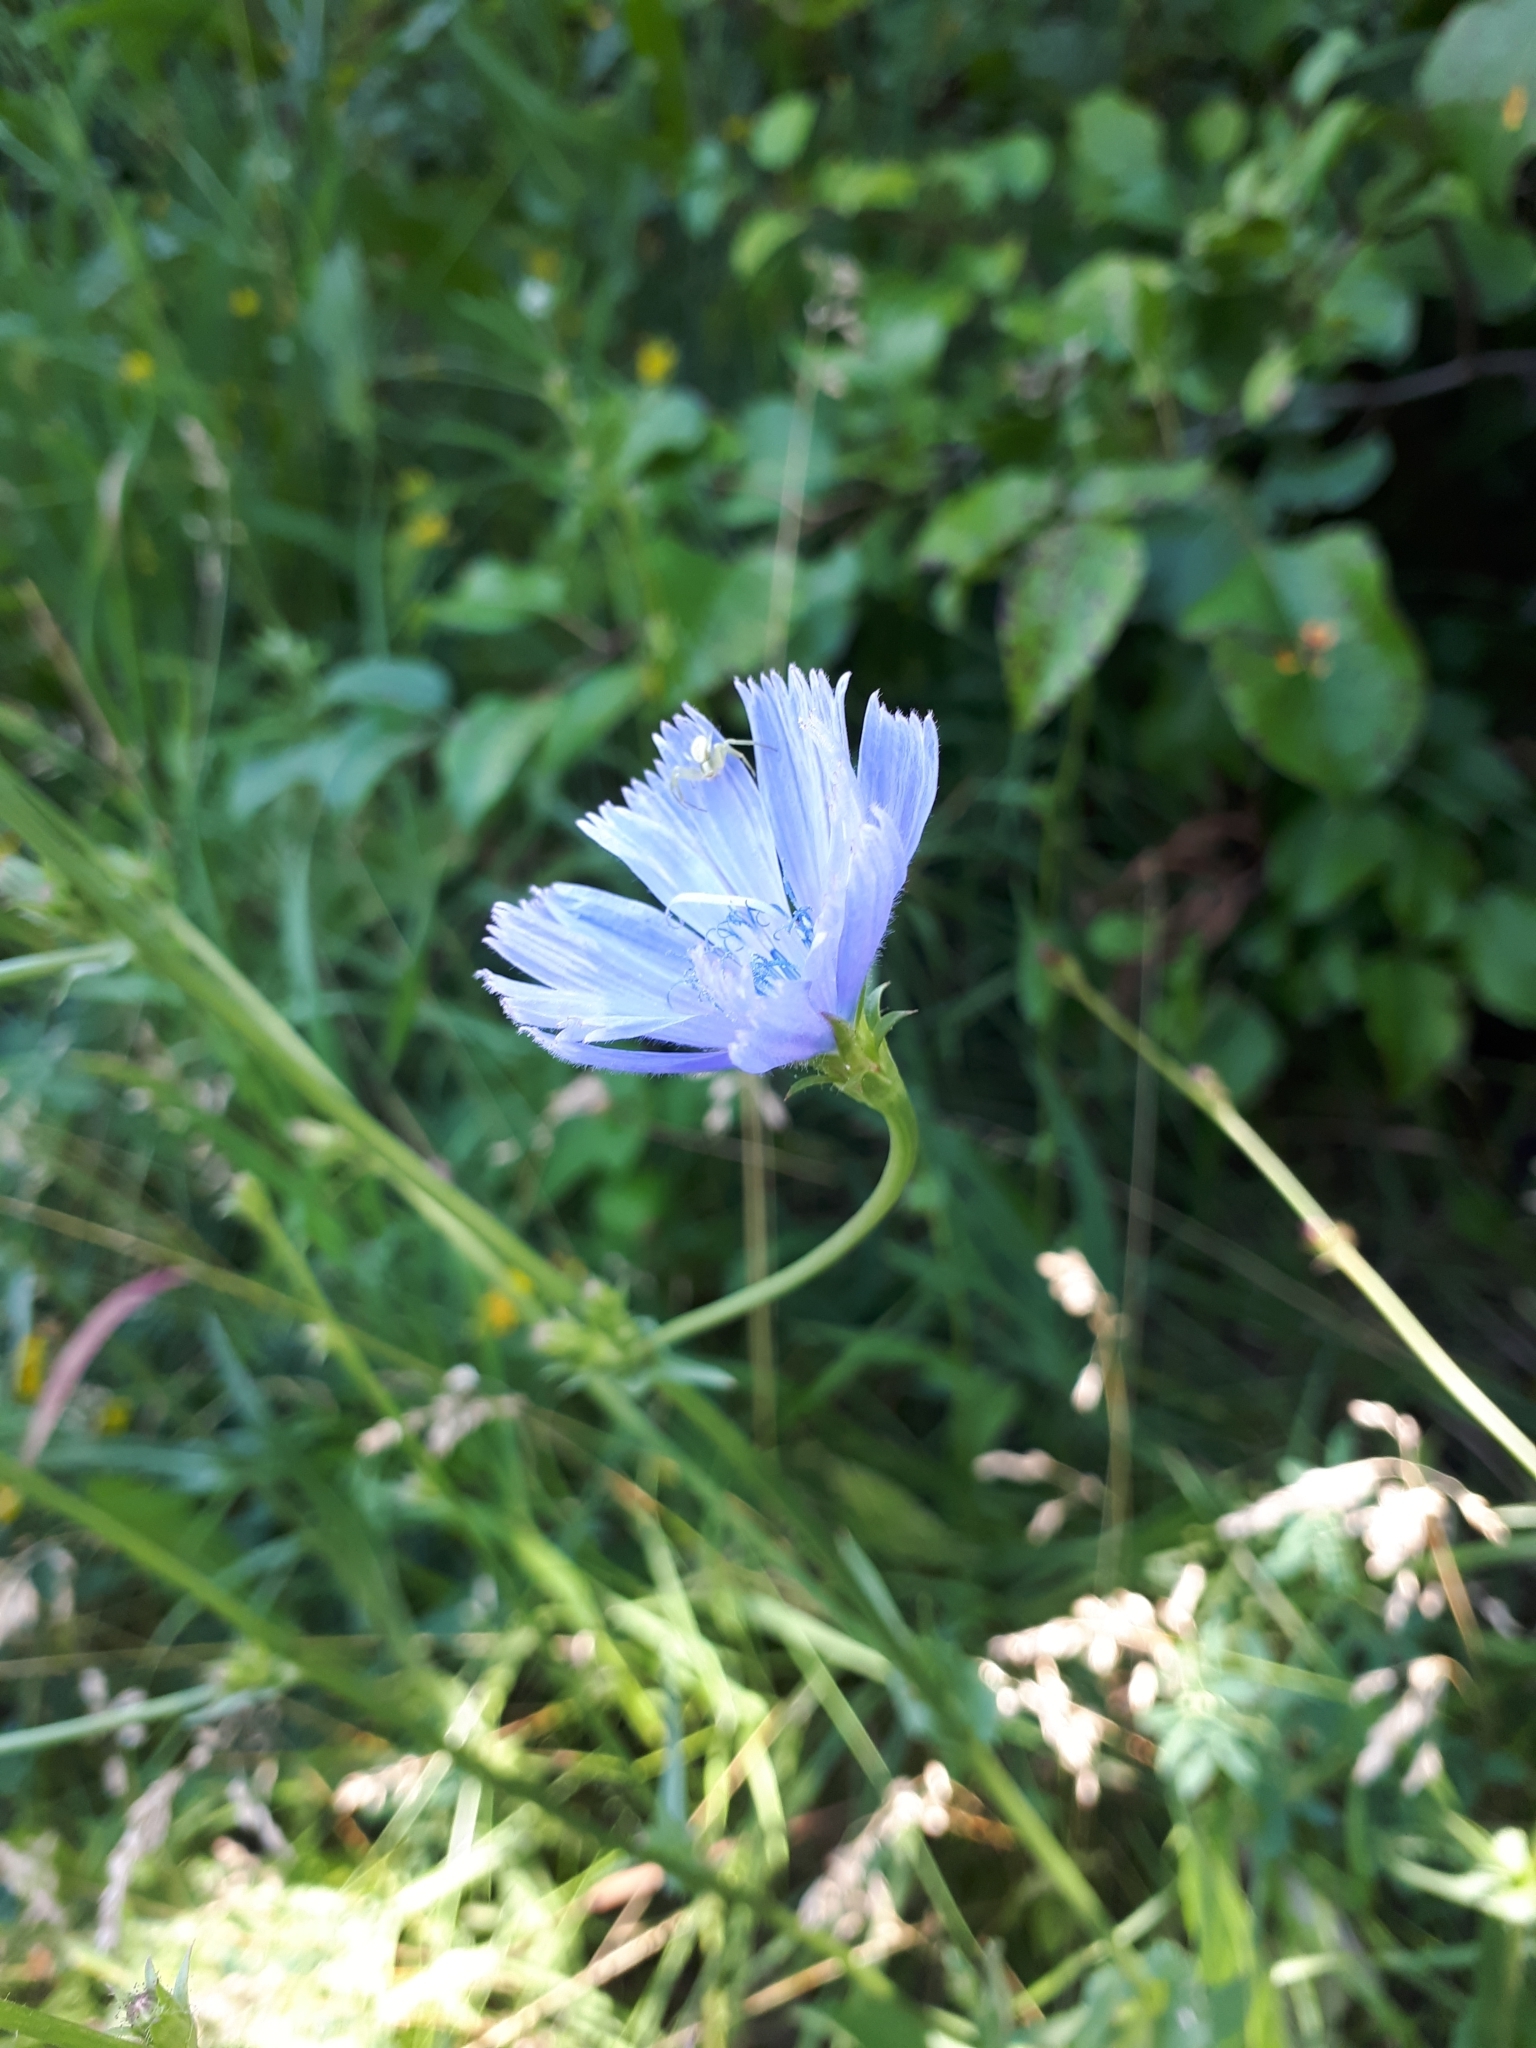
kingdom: Plantae
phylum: Tracheophyta
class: Magnoliopsida
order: Asterales
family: Asteraceae
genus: Cichorium
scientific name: Cichorium intybus
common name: Chicory
